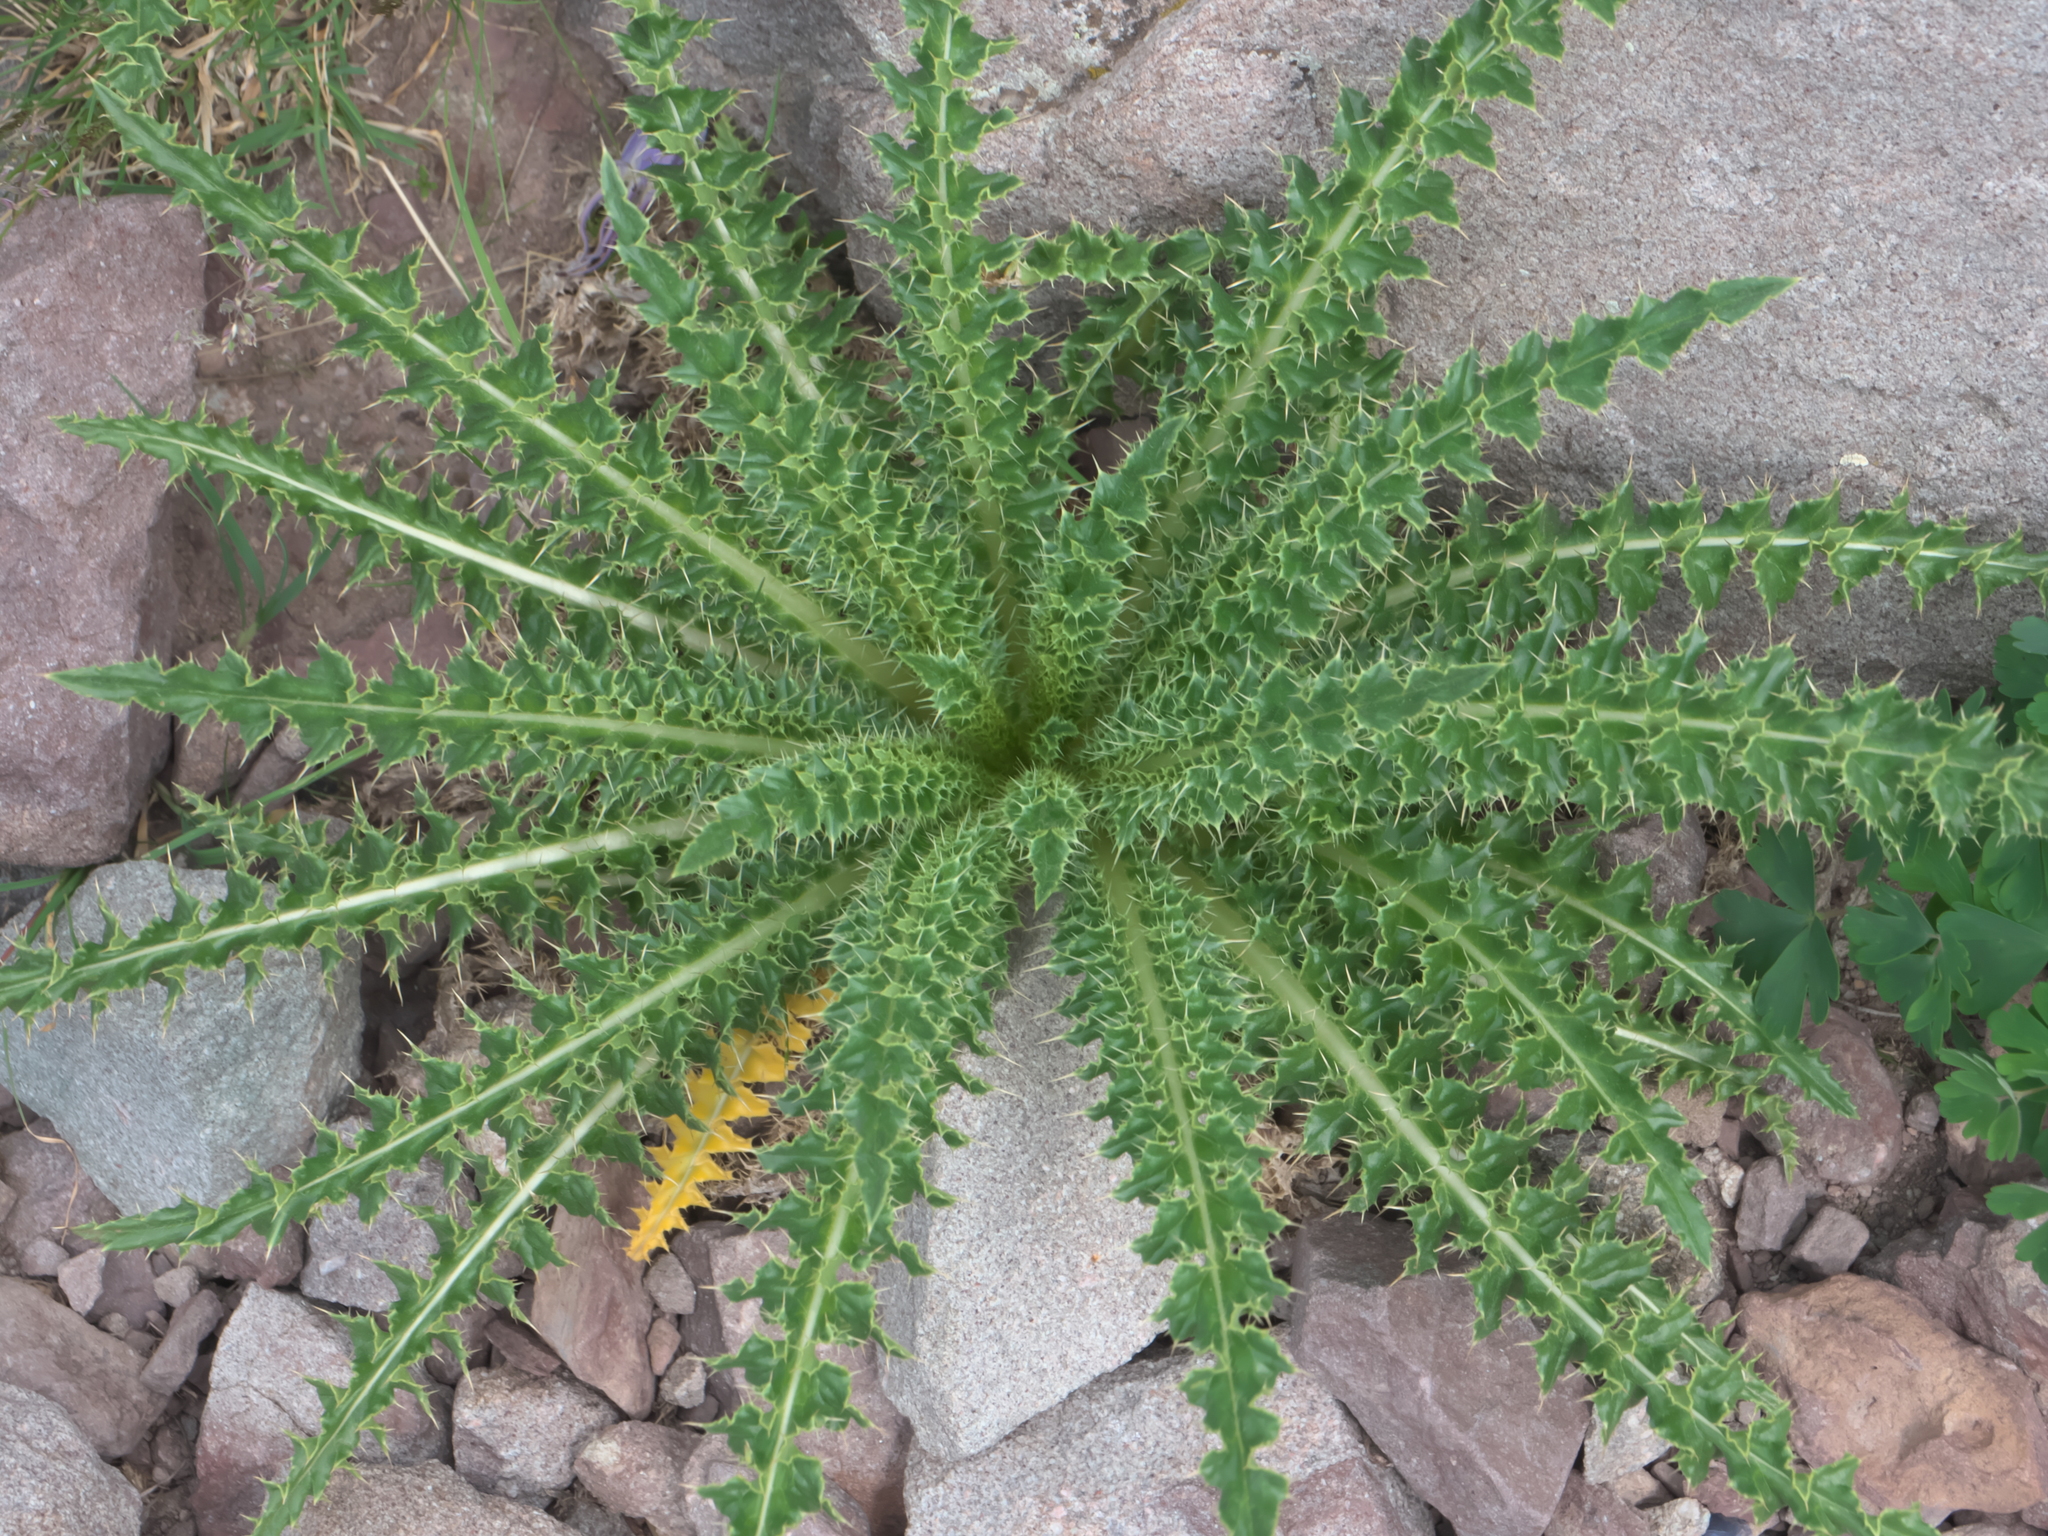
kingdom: Plantae
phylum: Tracheophyta
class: Magnoliopsida
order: Asterales
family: Asteraceae
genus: Cirsium
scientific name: Cirsium funkiae
